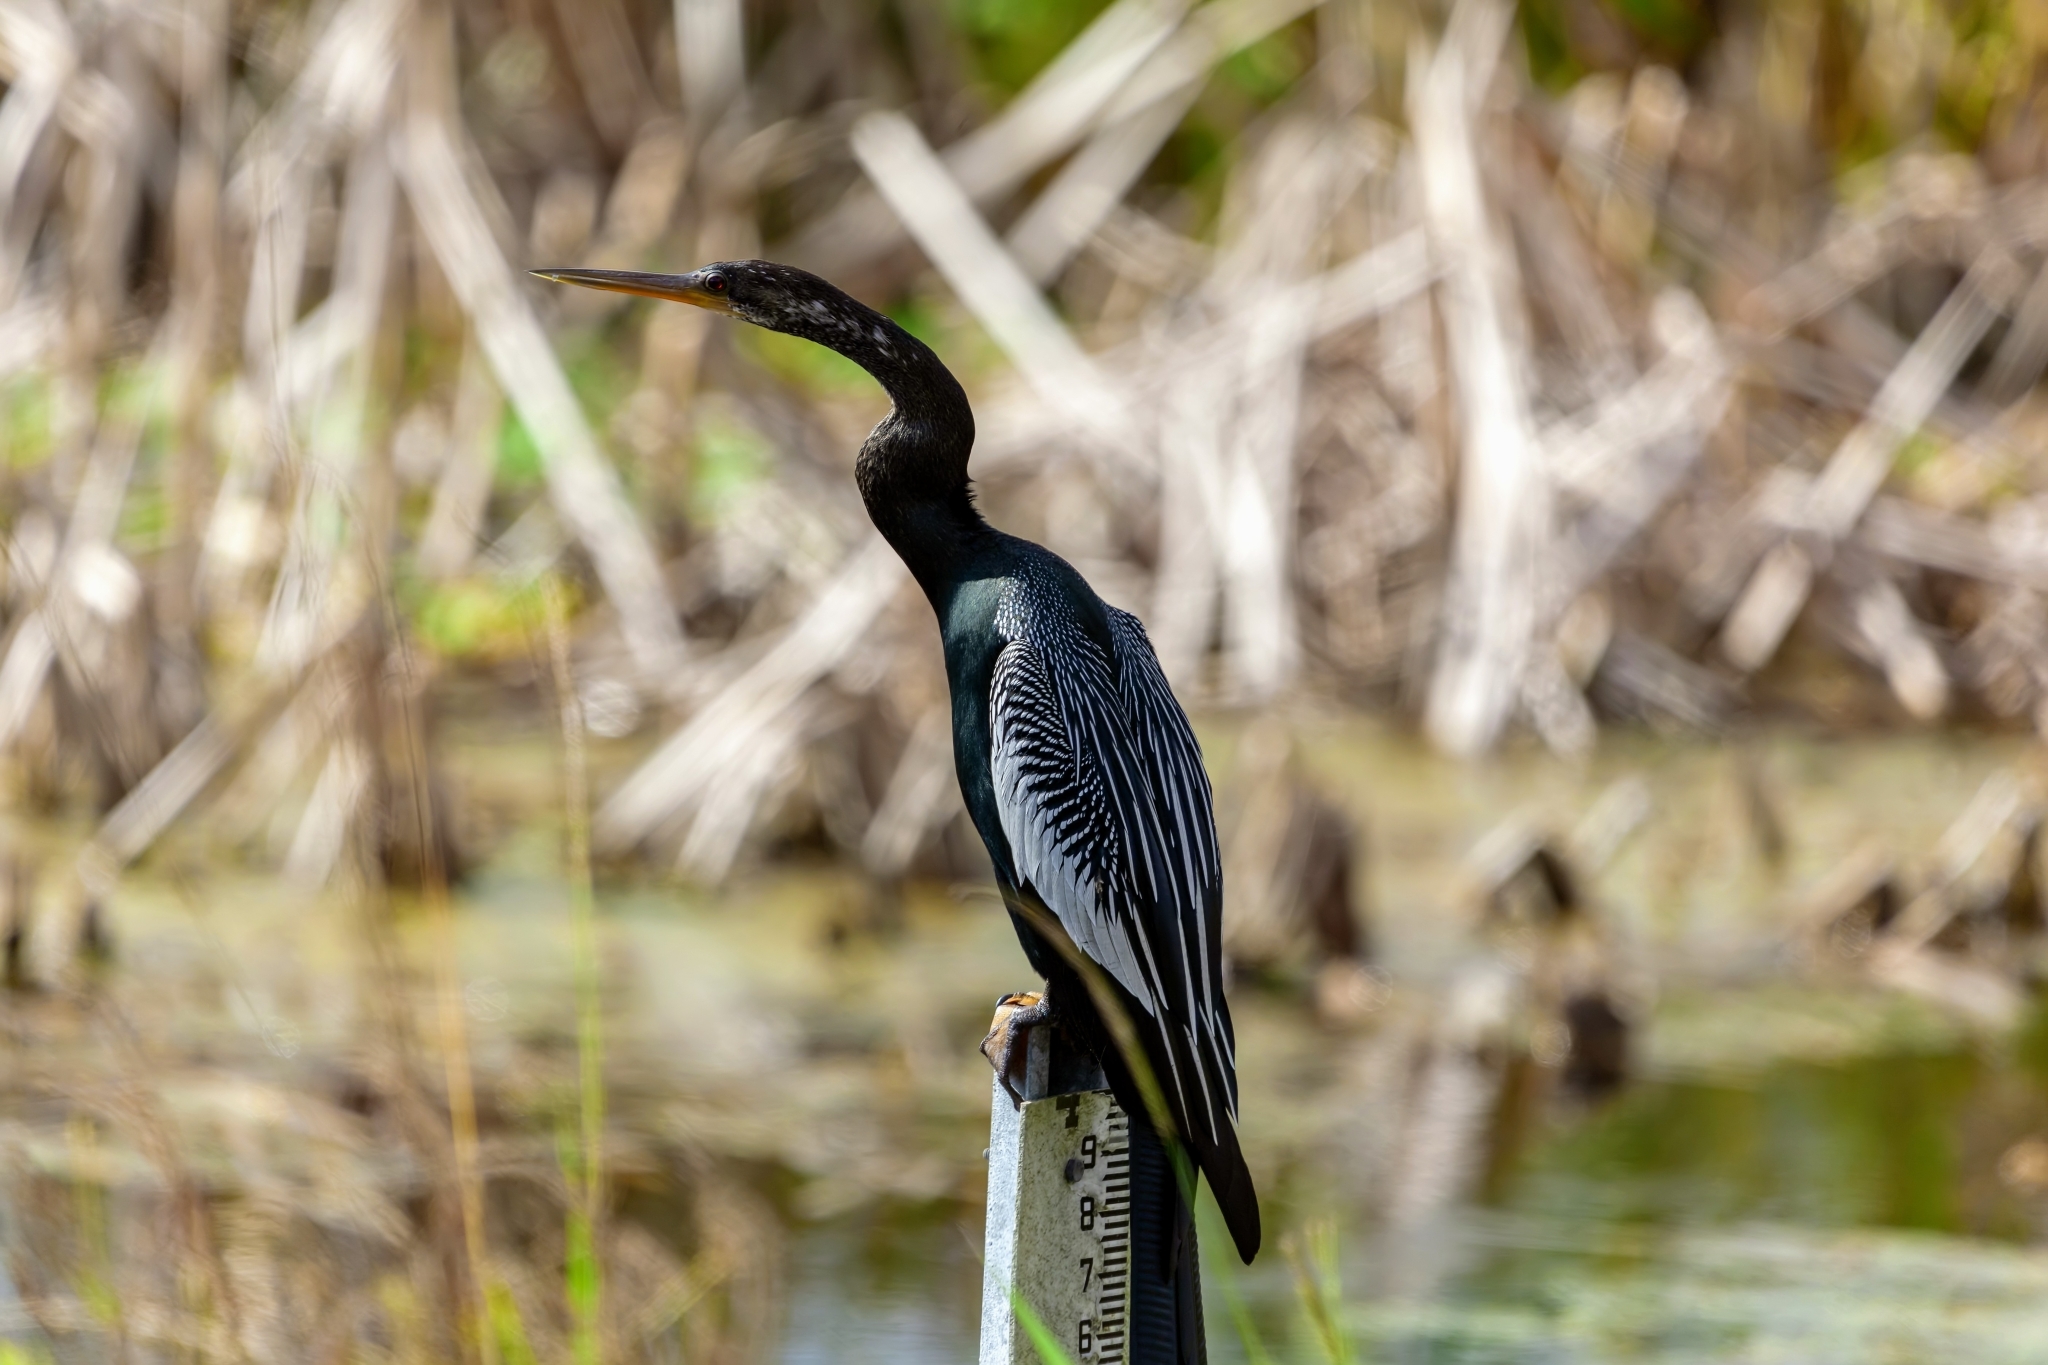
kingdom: Animalia
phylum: Chordata
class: Aves
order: Suliformes
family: Anhingidae
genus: Anhinga
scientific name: Anhinga anhinga
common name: Anhinga
